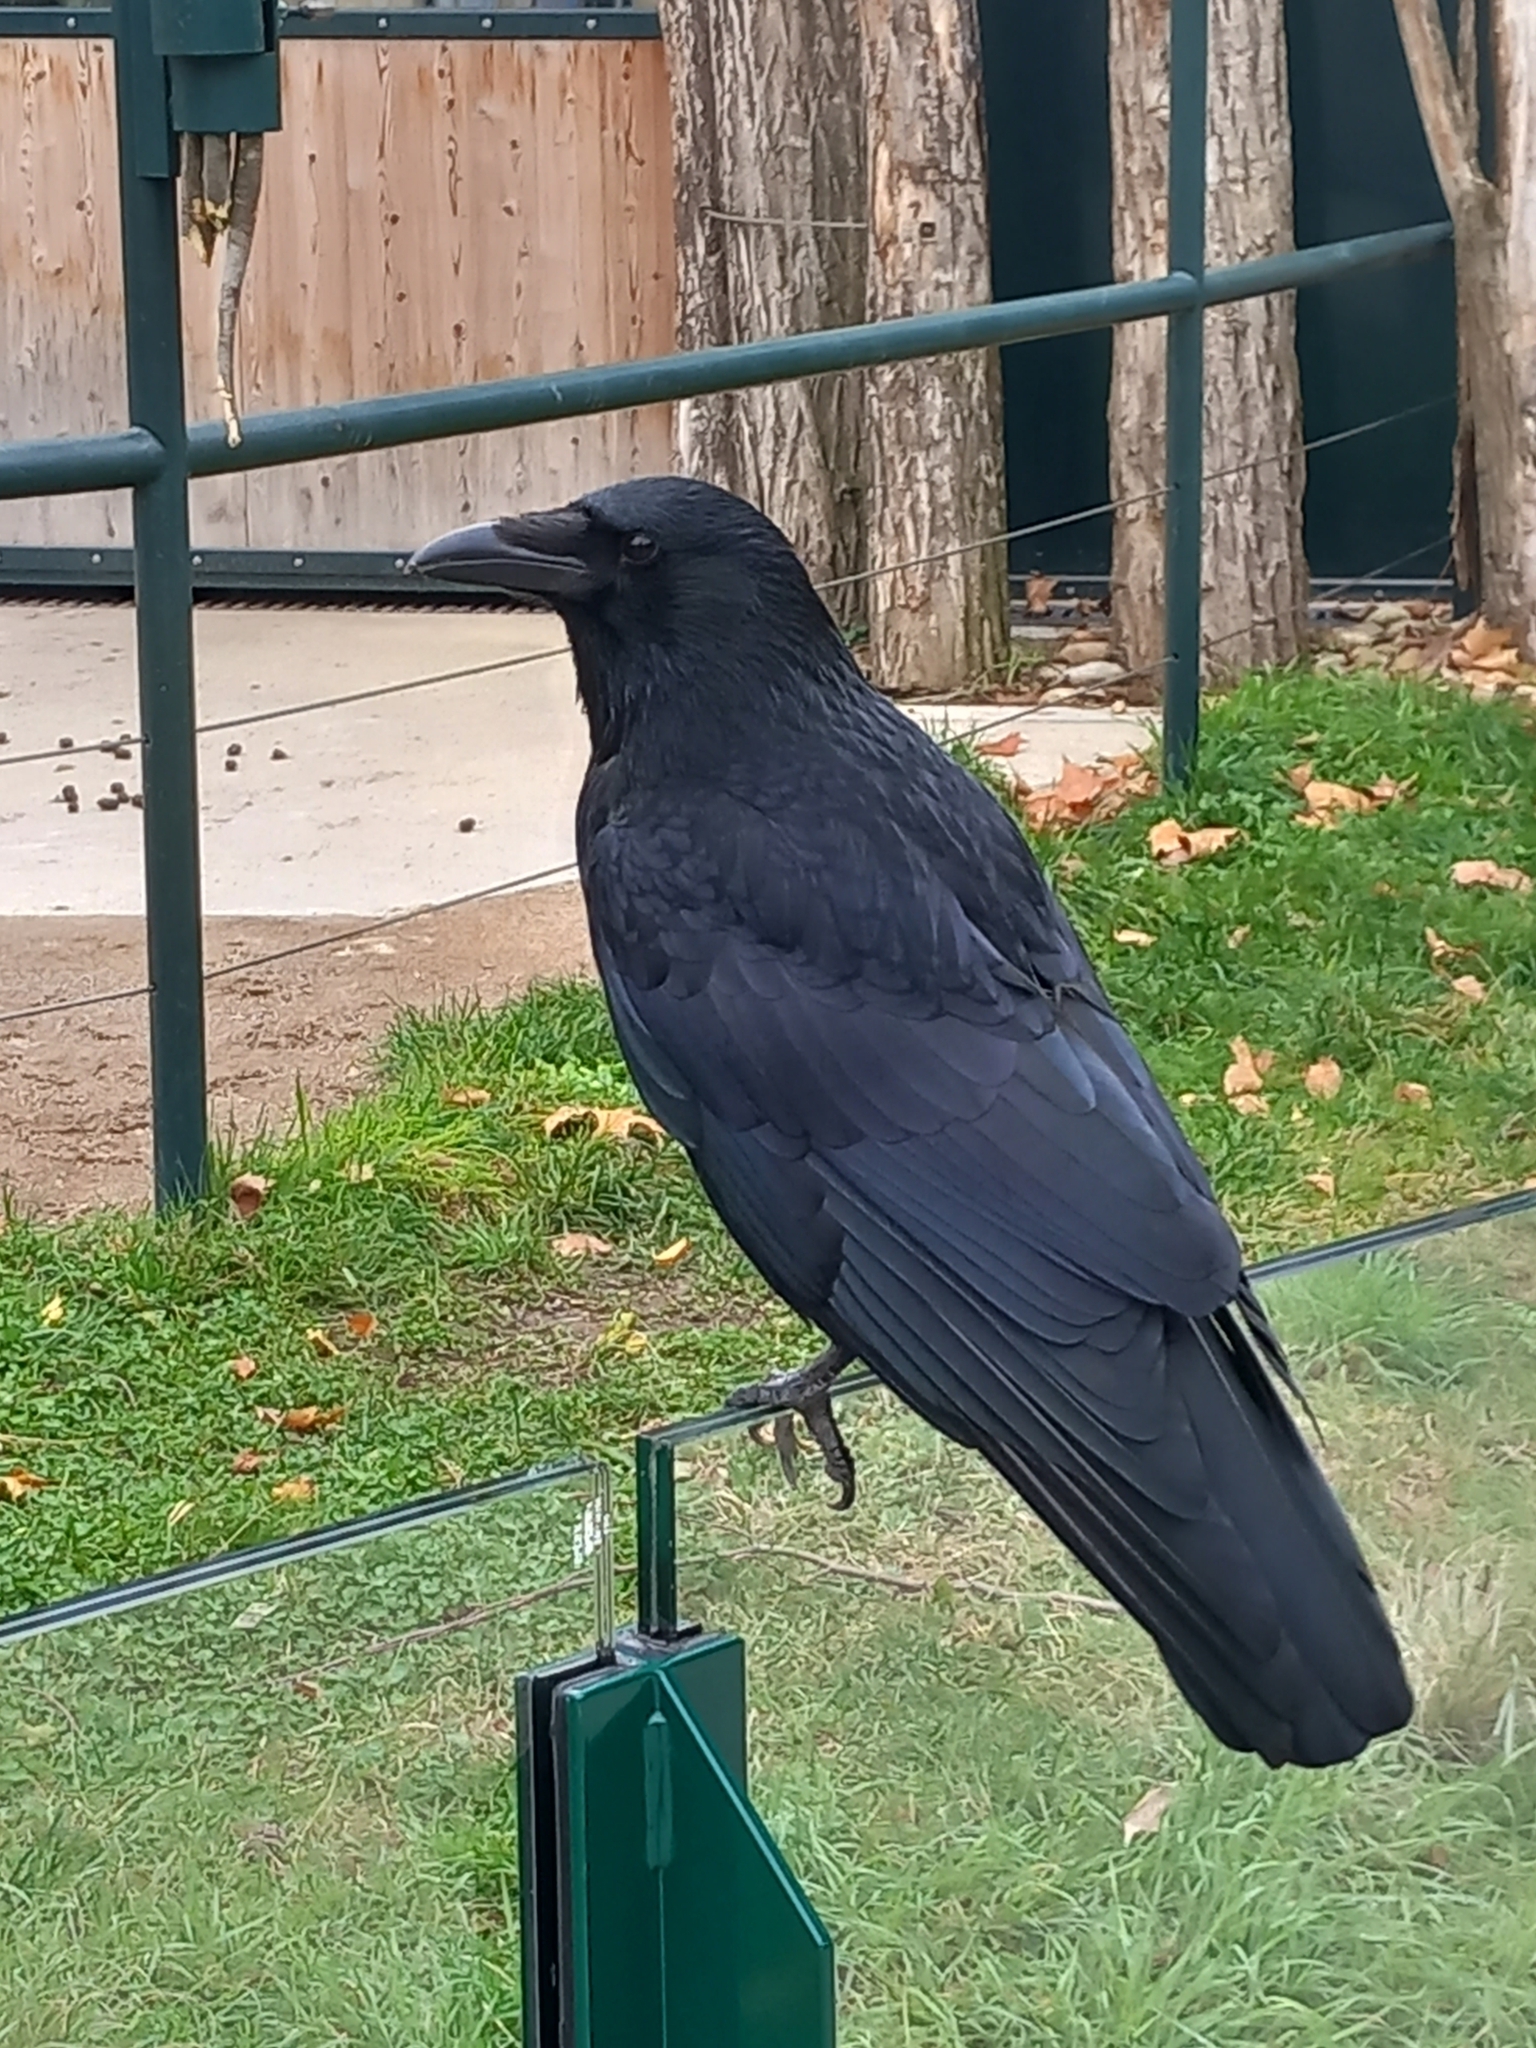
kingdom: Animalia
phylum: Chordata
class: Aves
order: Passeriformes
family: Corvidae
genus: Corvus
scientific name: Corvus corone
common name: Carrion crow
